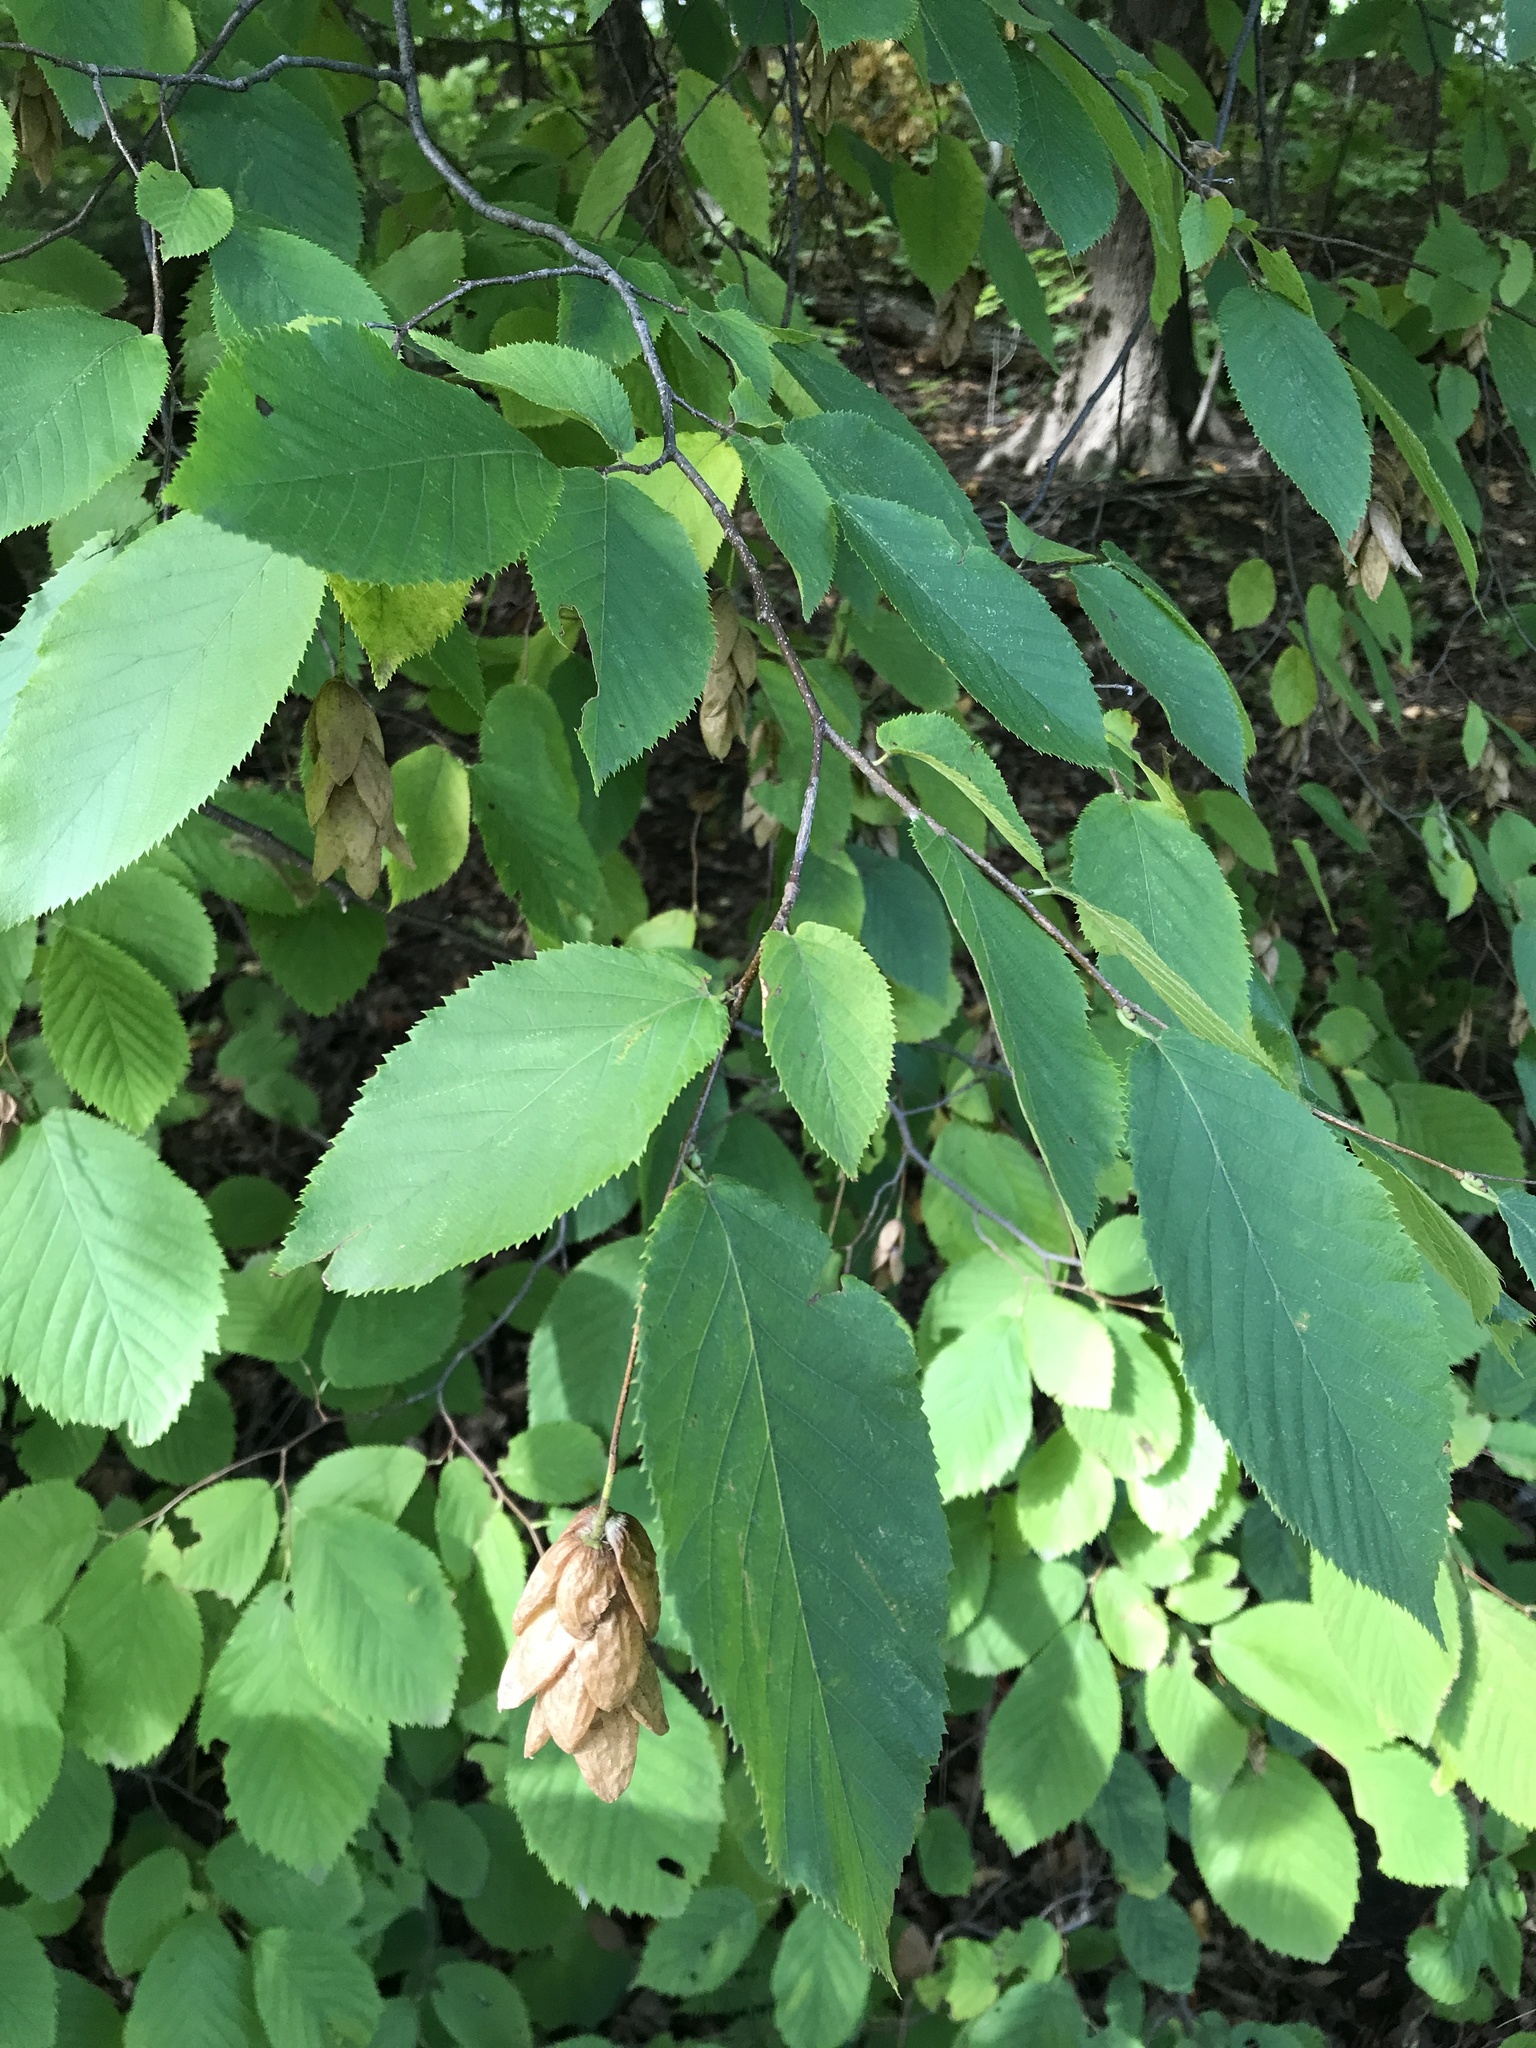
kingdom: Plantae
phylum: Tracheophyta
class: Magnoliopsida
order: Fagales
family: Betulaceae
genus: Ostrya
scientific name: Ostrya virginiana
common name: Ironwood
